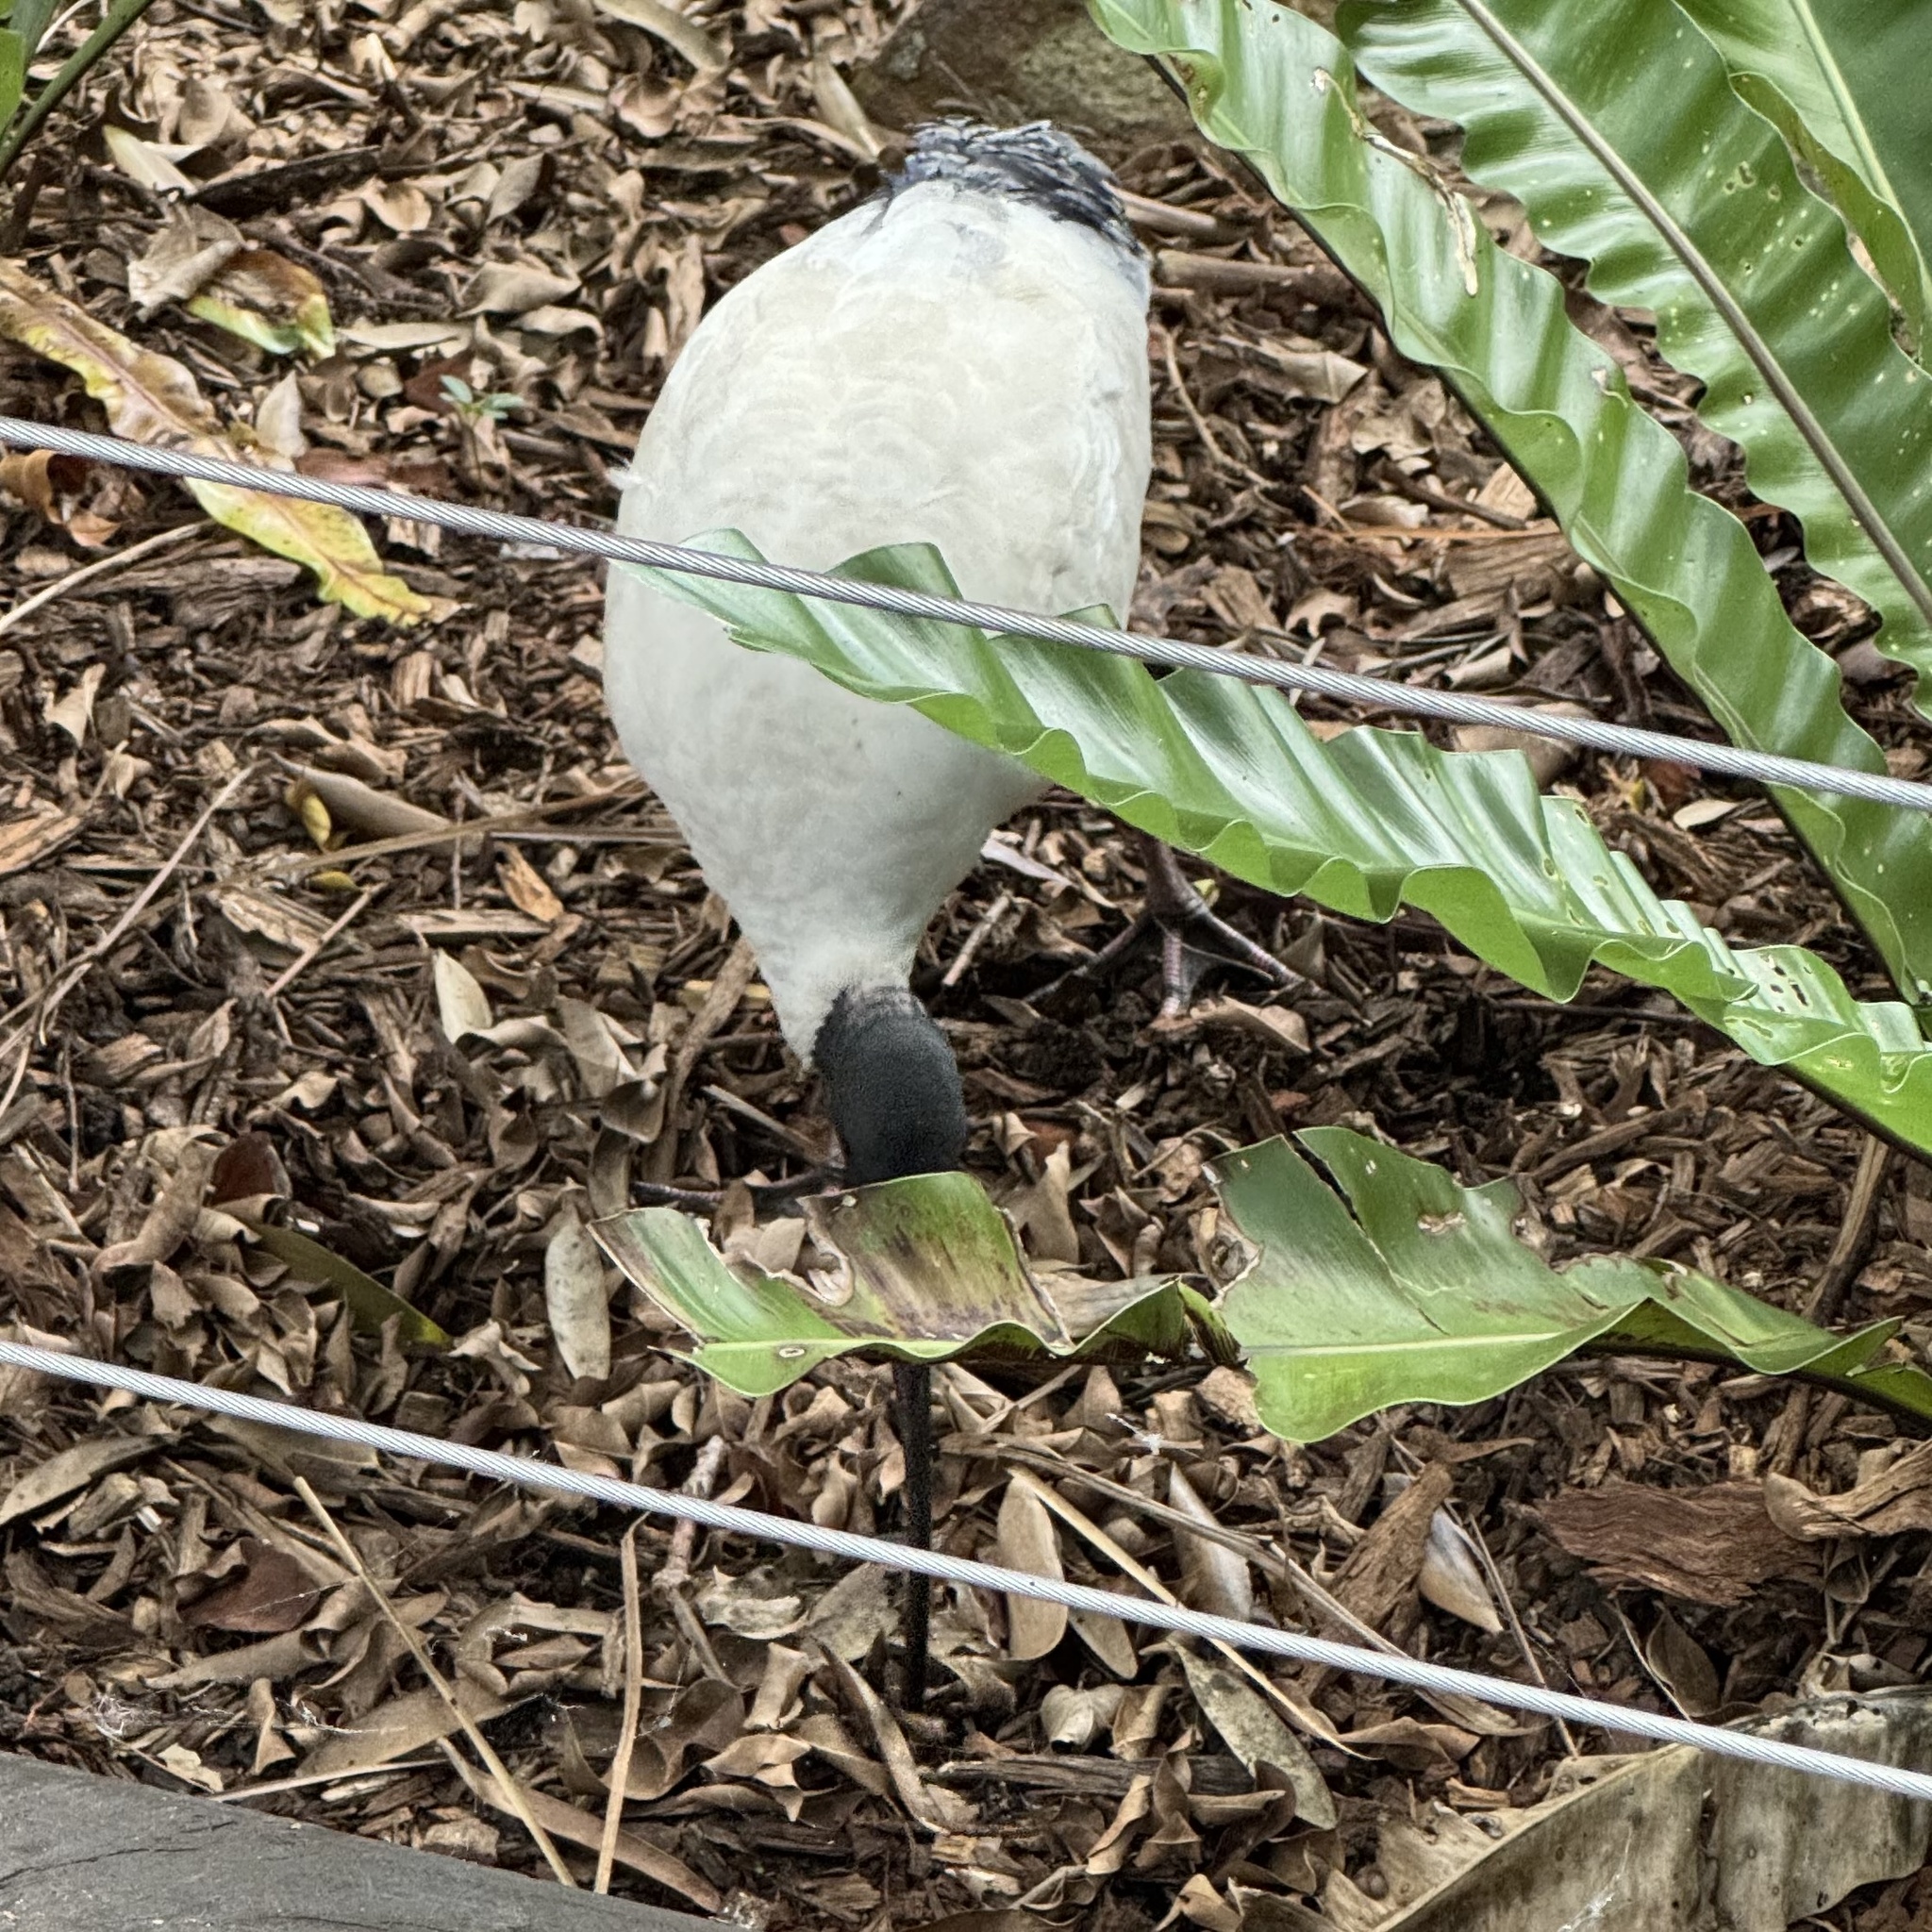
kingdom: Animalia
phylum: Chordata
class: Aves
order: Pelecaniformes
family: Threskiornithidae
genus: Threskiornis
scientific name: Threskiornis molucca
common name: Australian white ibis
